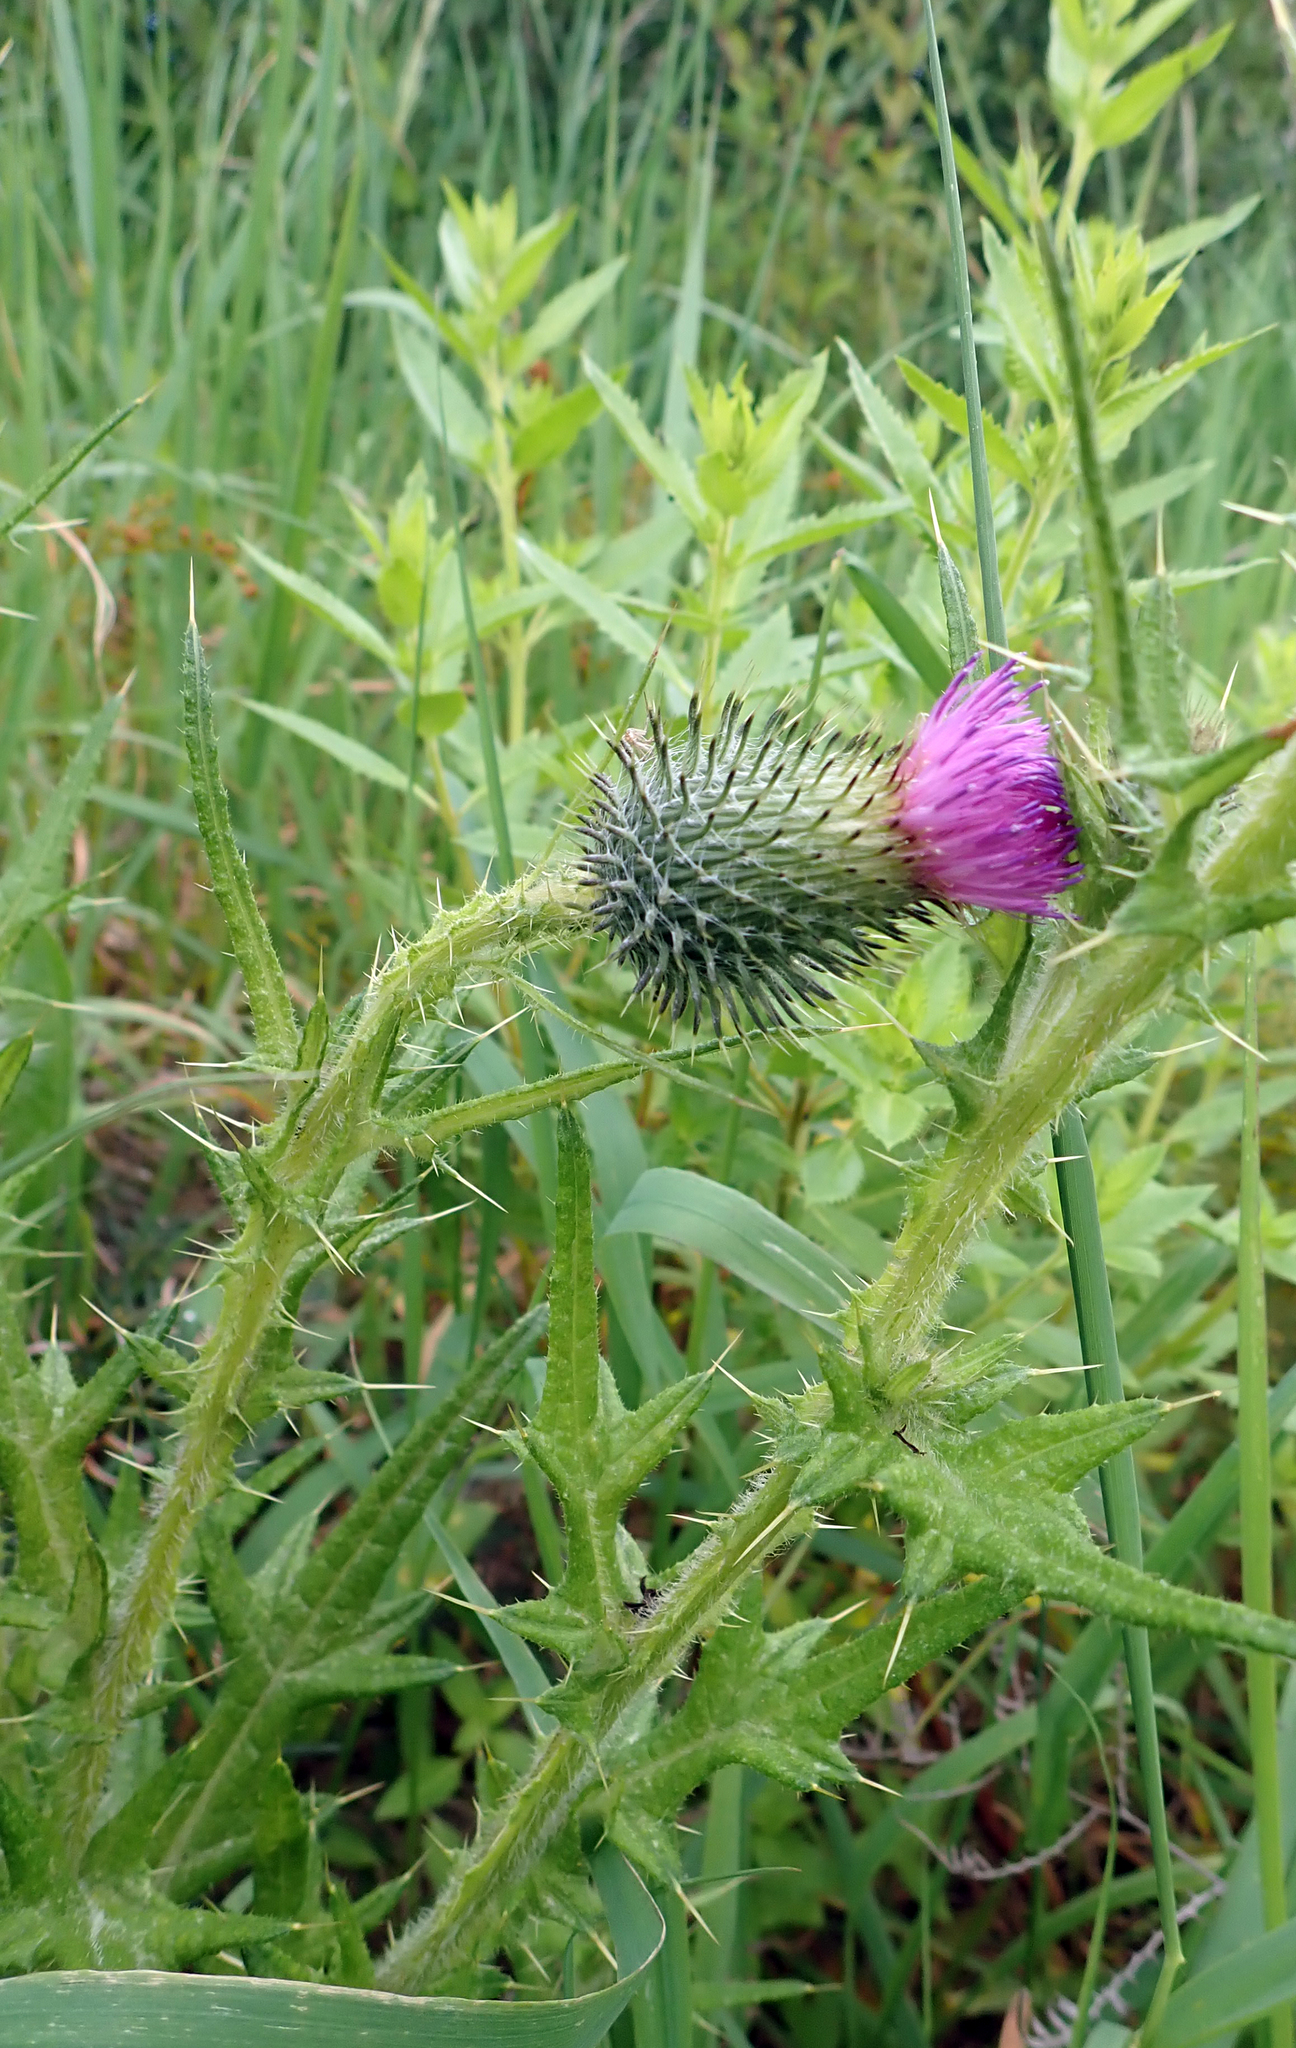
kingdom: Plantae
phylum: Tracheophyta
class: Magnoliopsida
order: Asterales
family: Asteraceae
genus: Cirsium
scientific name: Cirsium vulgare
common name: Bull thistle
